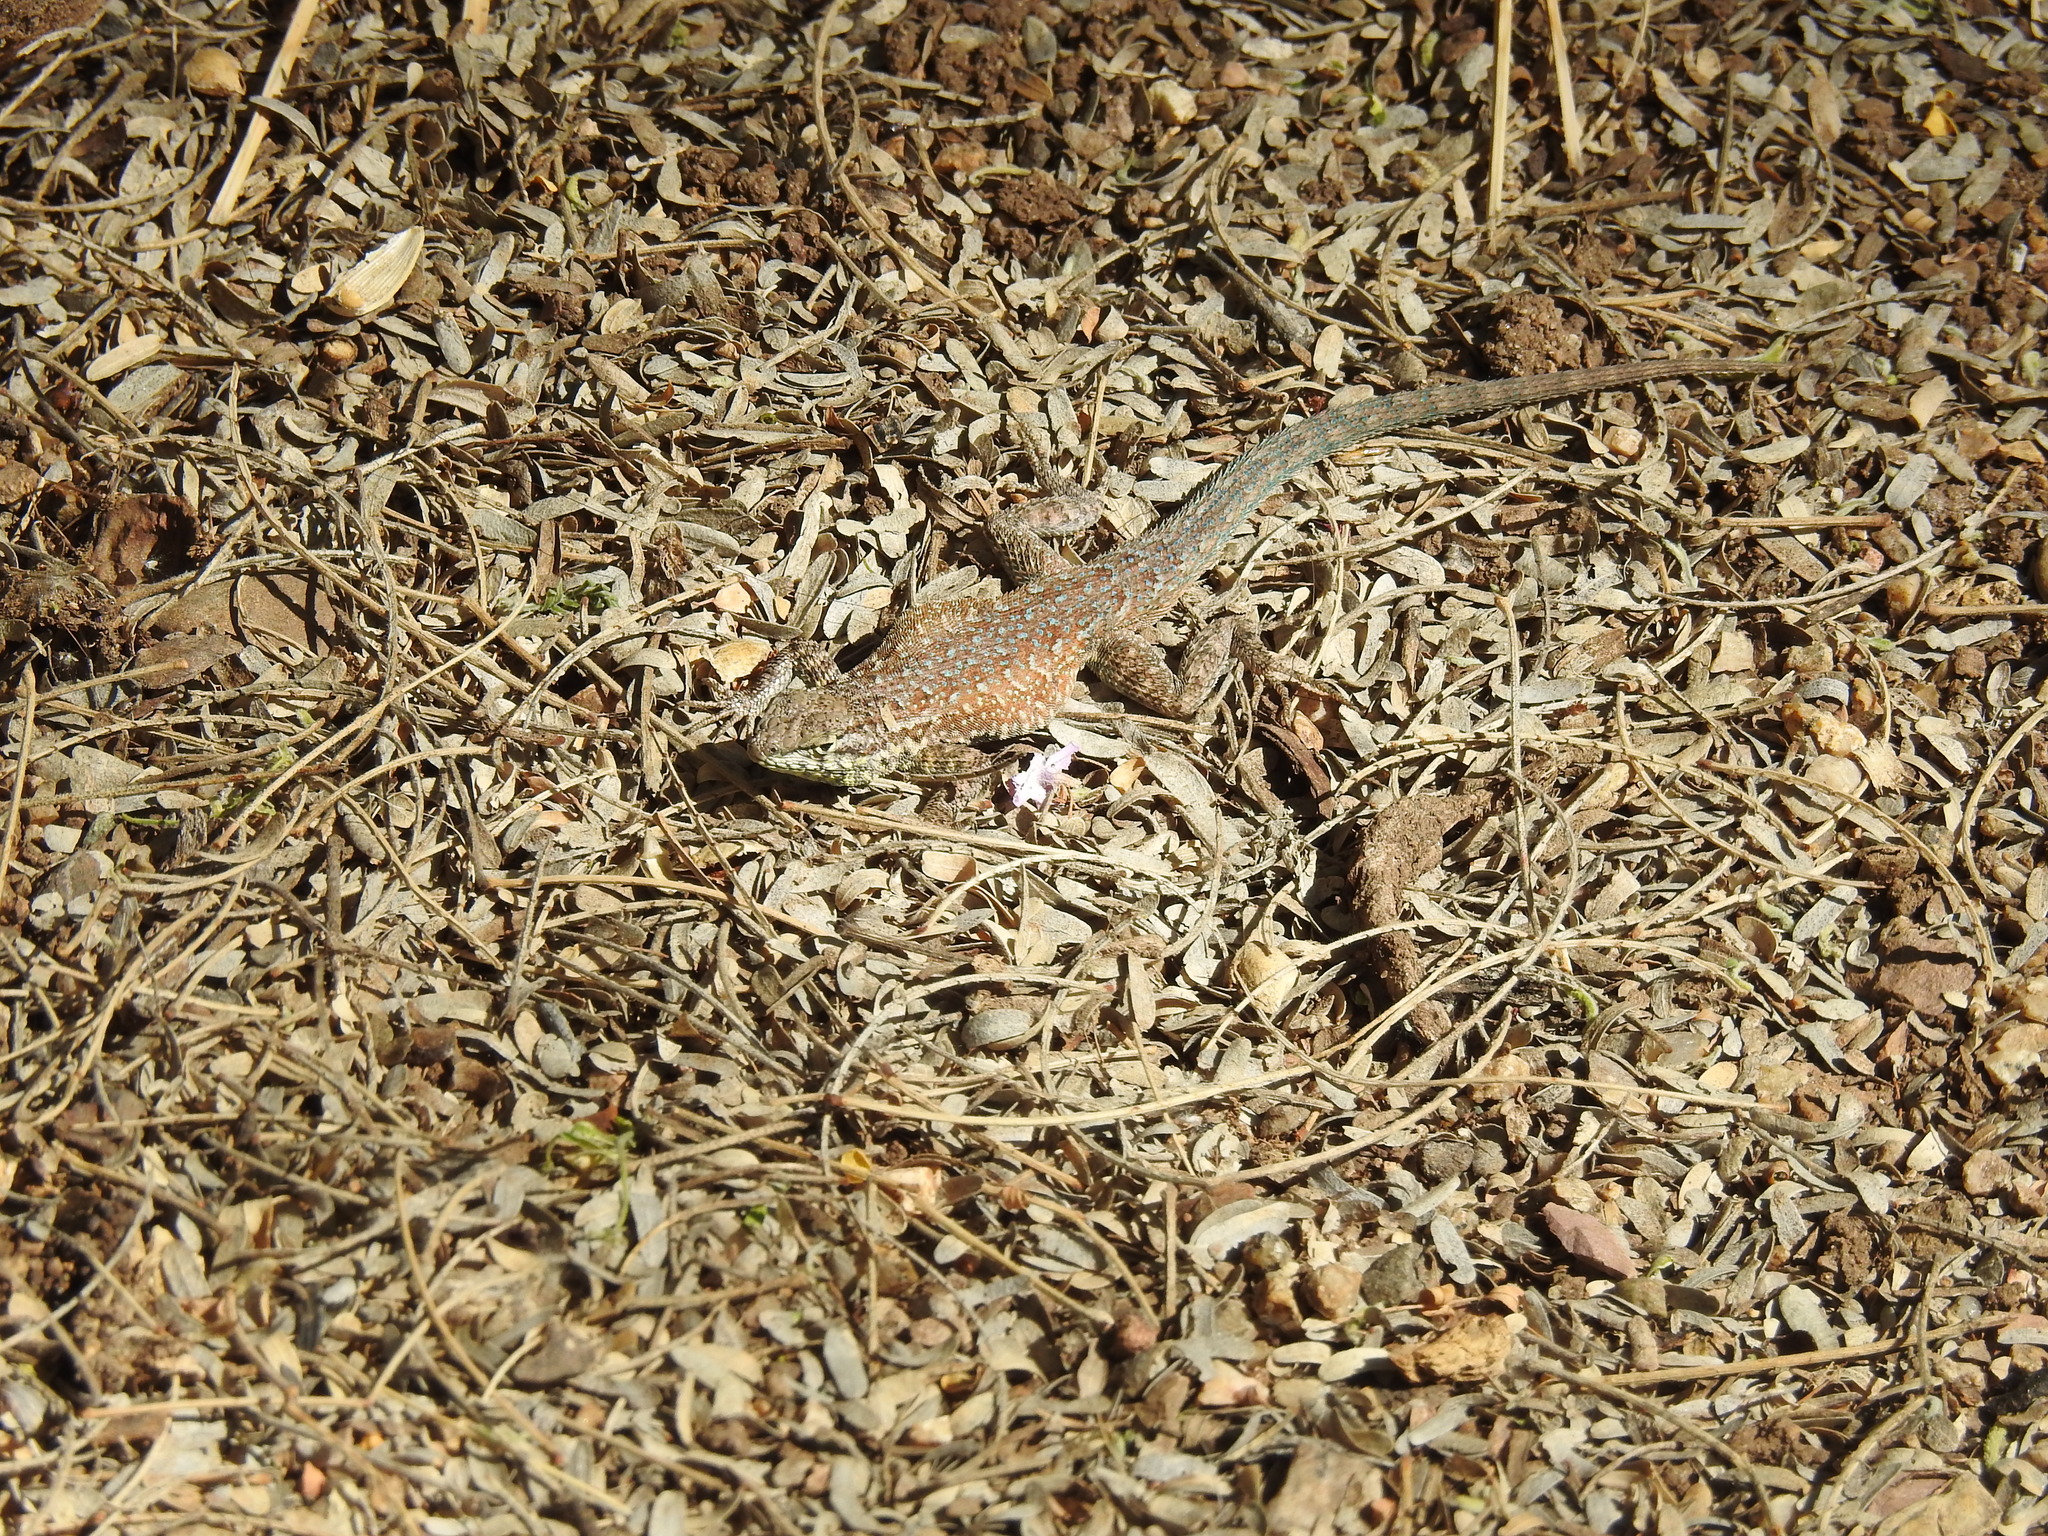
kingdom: Animalia
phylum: Chordata
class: Squamata
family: Phrynosomatidae
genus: Uta
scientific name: Uta stansburiana
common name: Side-blotched lizard
